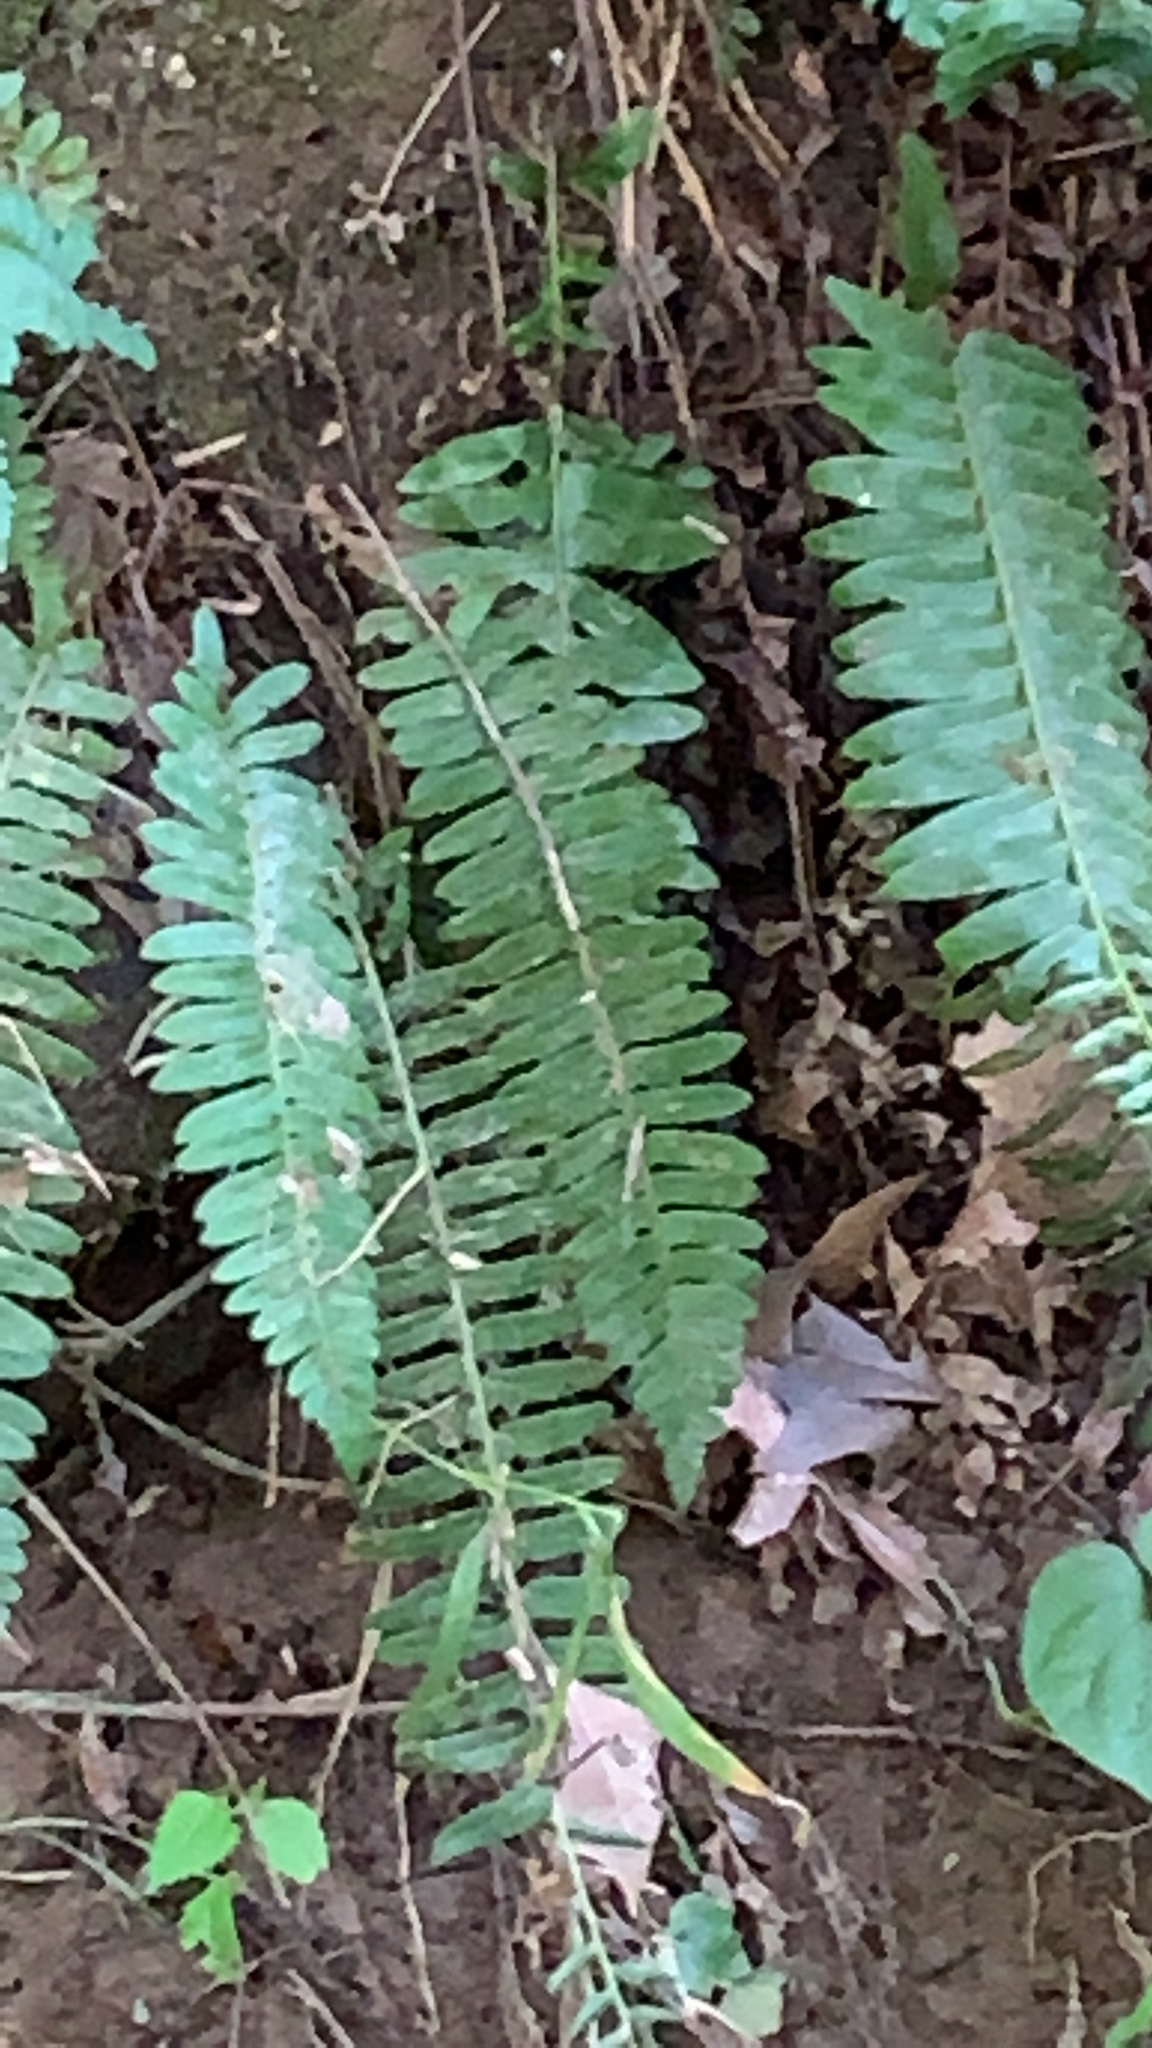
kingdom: Plantae
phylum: Tracheophyta
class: Polypodiopsida
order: Polypodiales
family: Dryopteridaceae
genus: Polystichum
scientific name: Polystichum acrostichoides
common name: Christmas fern
